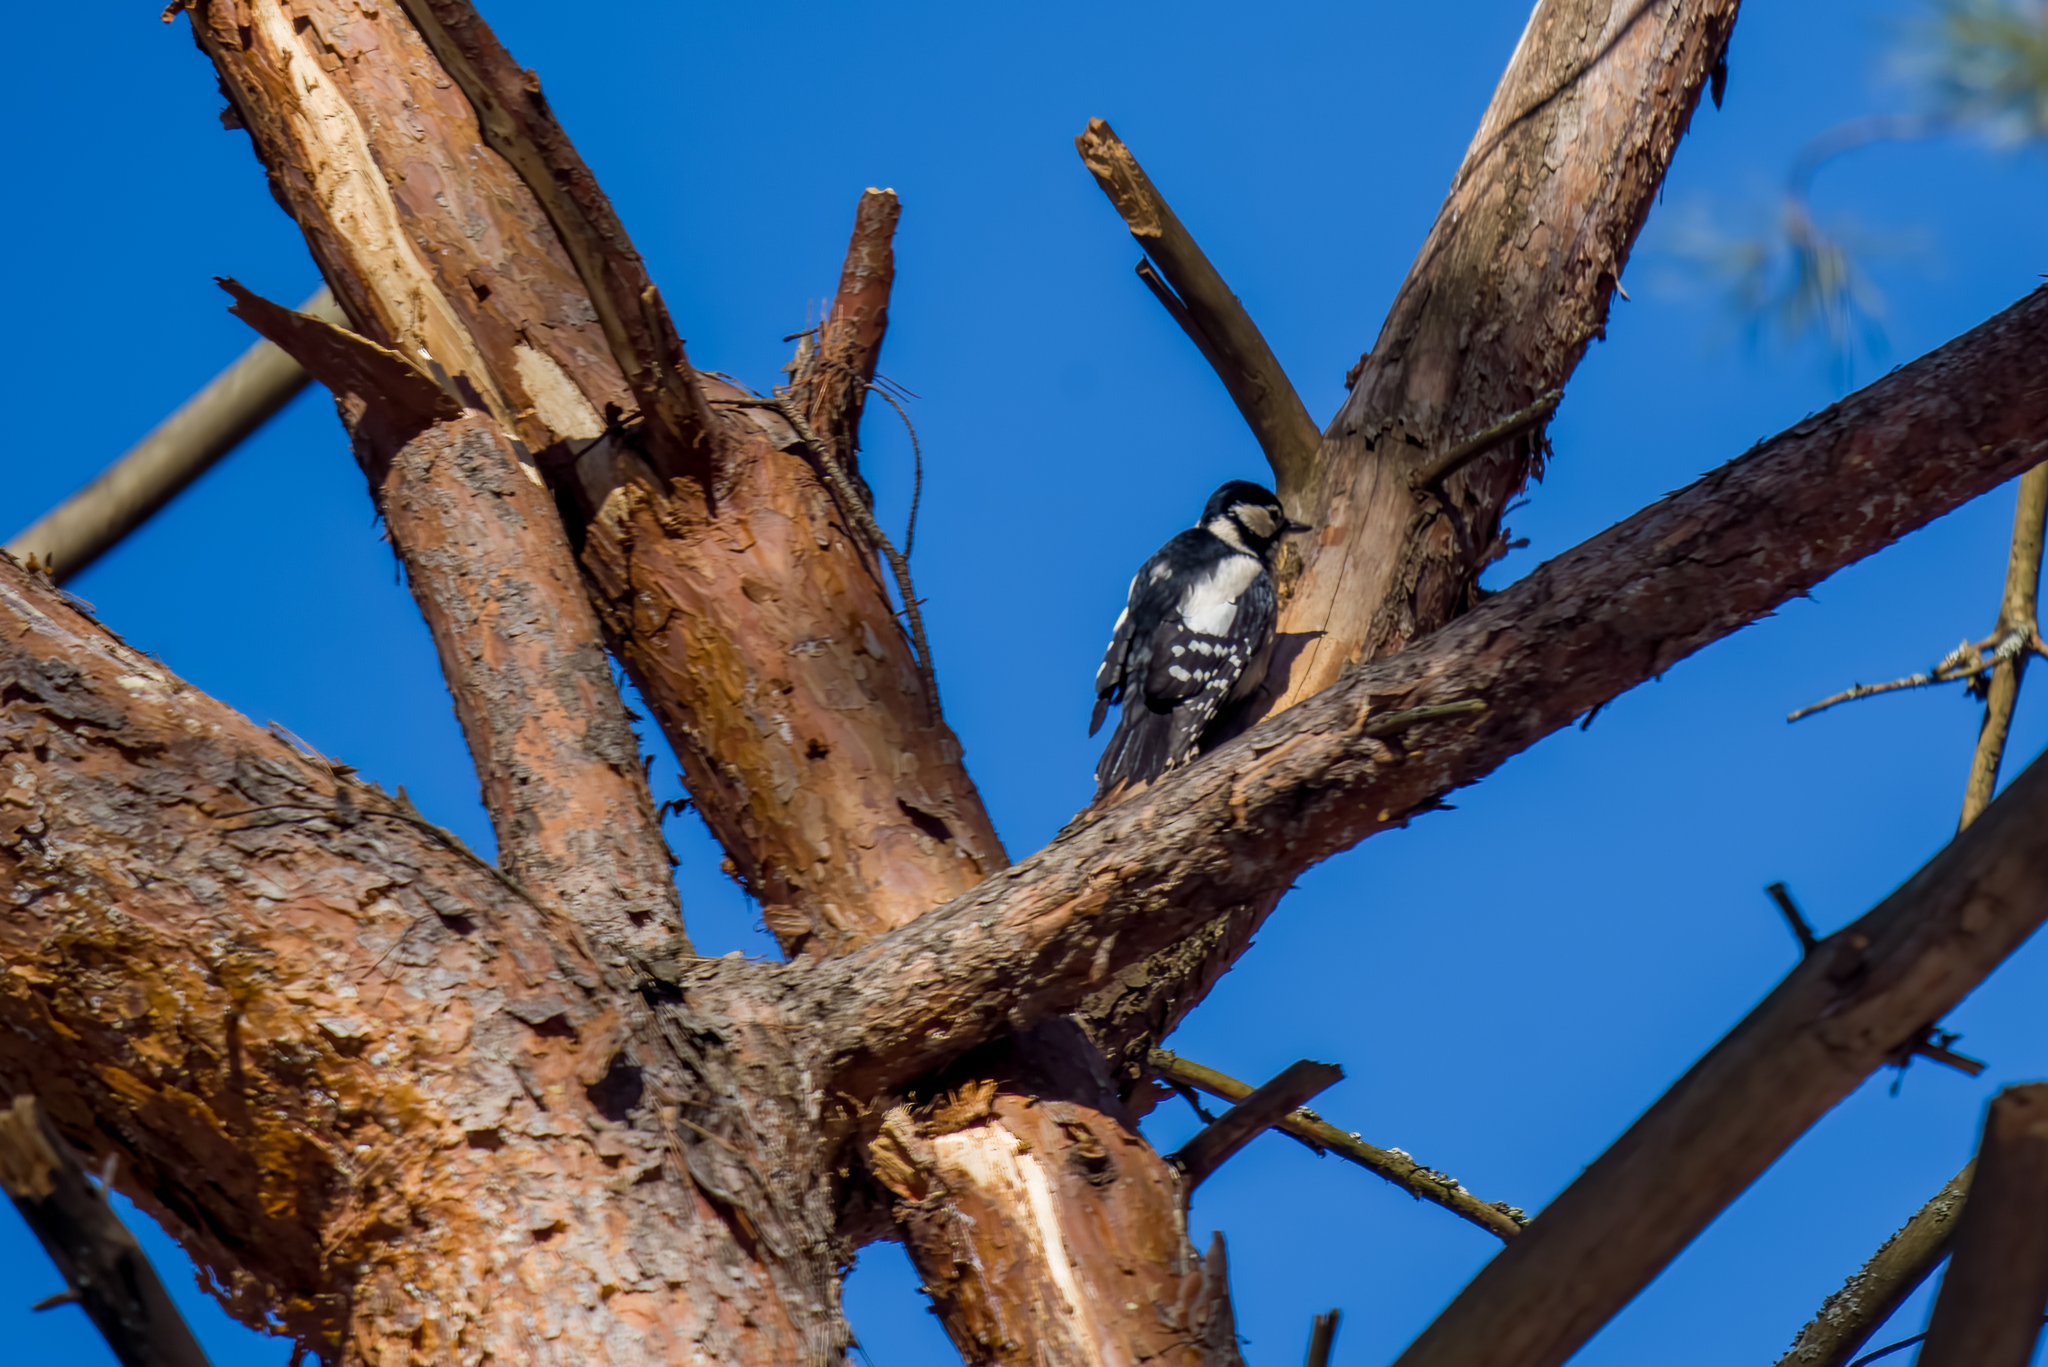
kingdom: Animalia
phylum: Chordata
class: Aves
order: Piciformes
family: Picidae
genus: Dendrocopos
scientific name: Dendrocopos major
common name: Great spotted woodpecker
